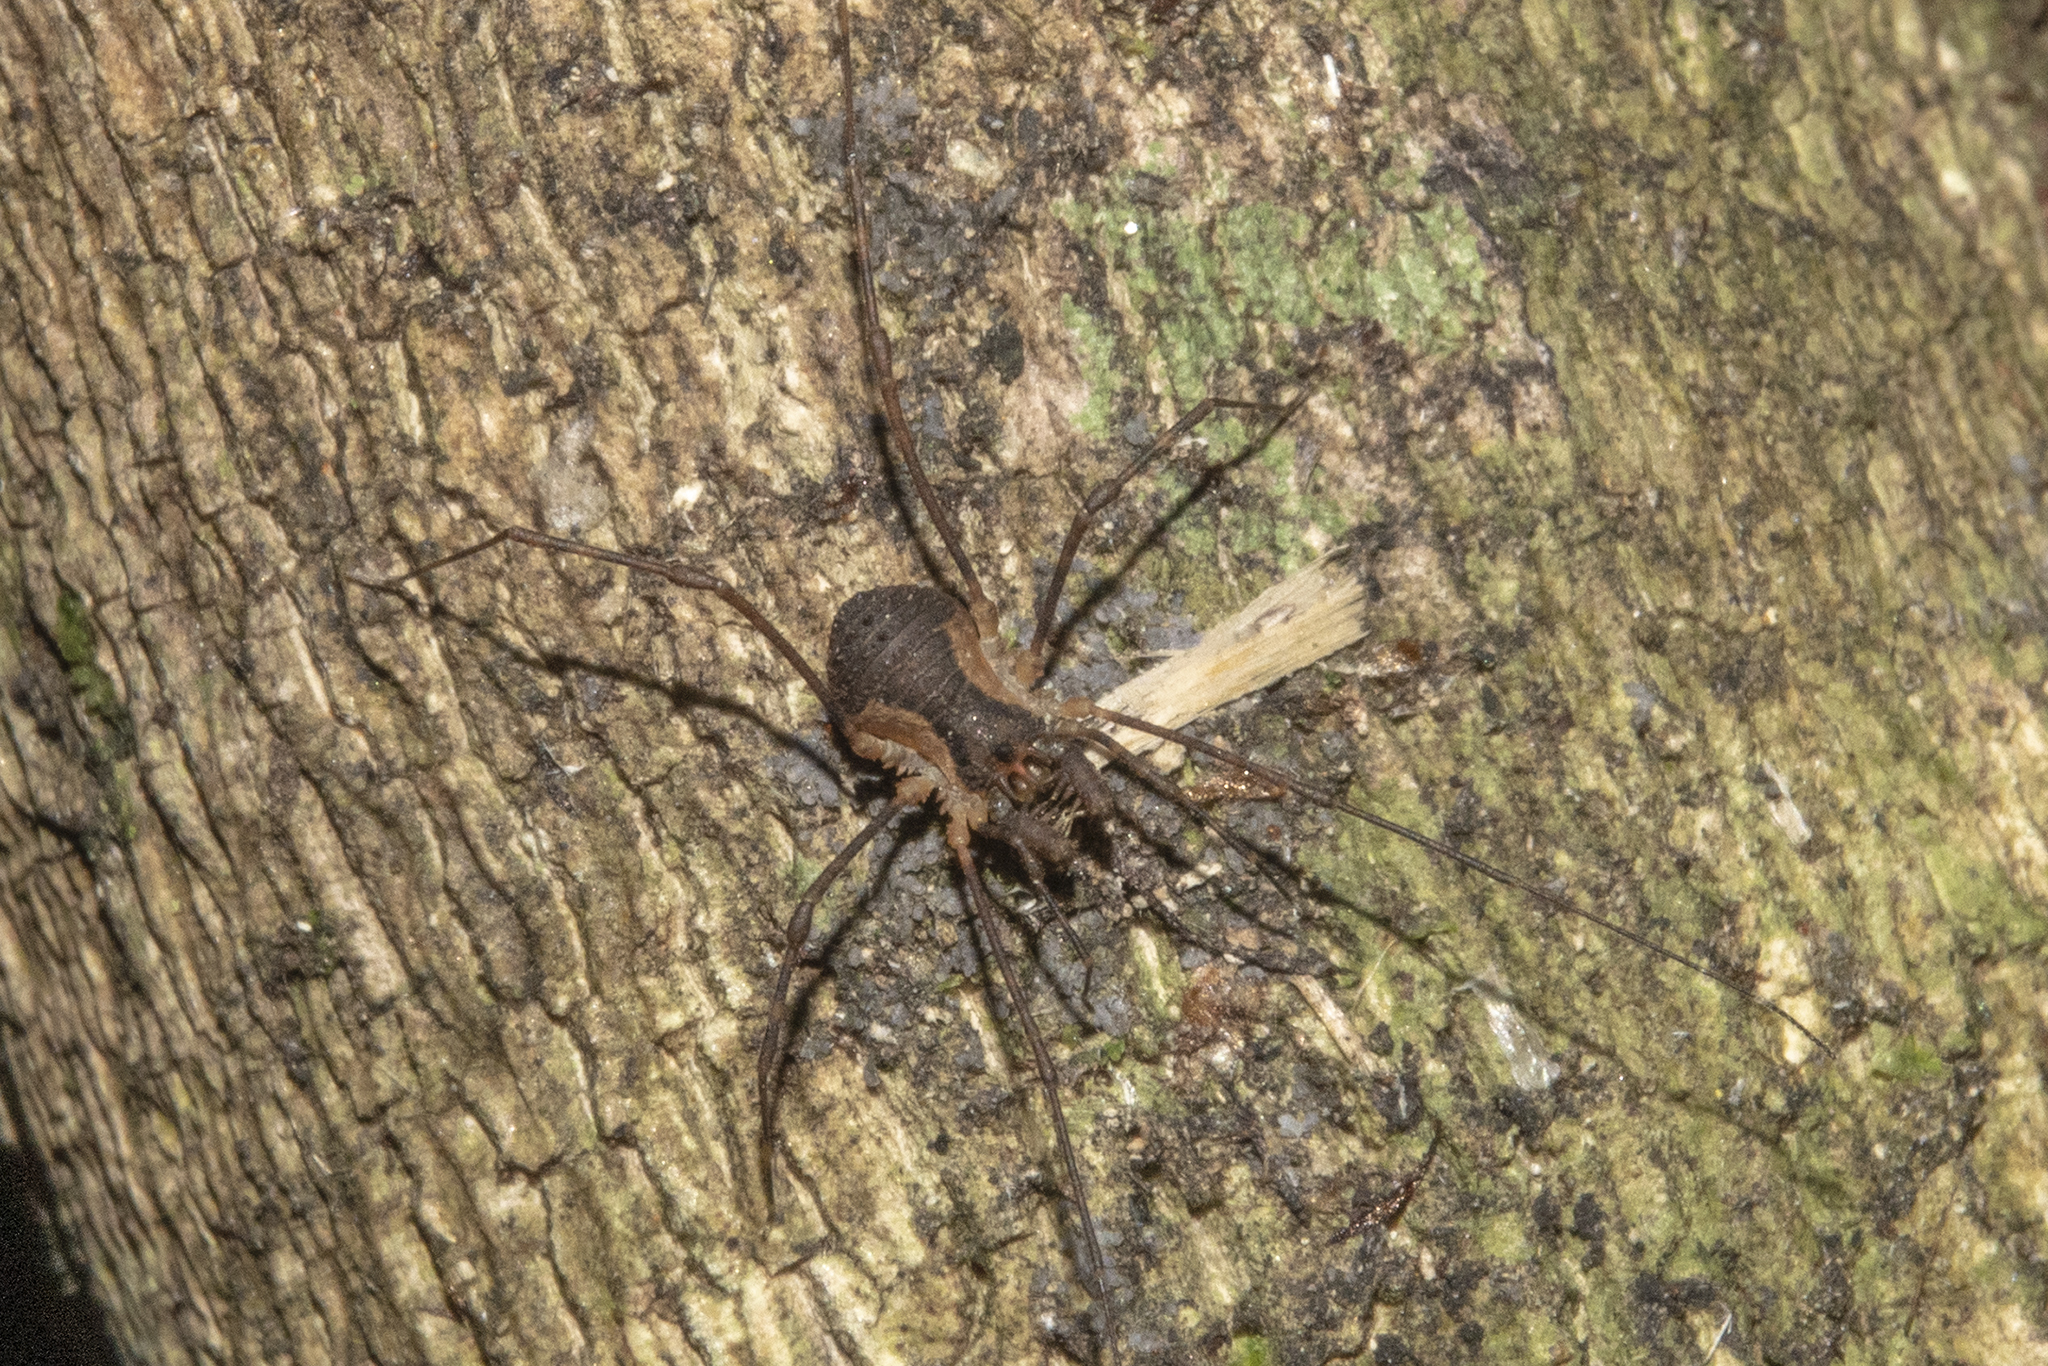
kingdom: Animalia
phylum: Arthropoda
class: Arachnida
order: Opiliones
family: Triaenonychidae
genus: Algidia
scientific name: Algidia interrupta
